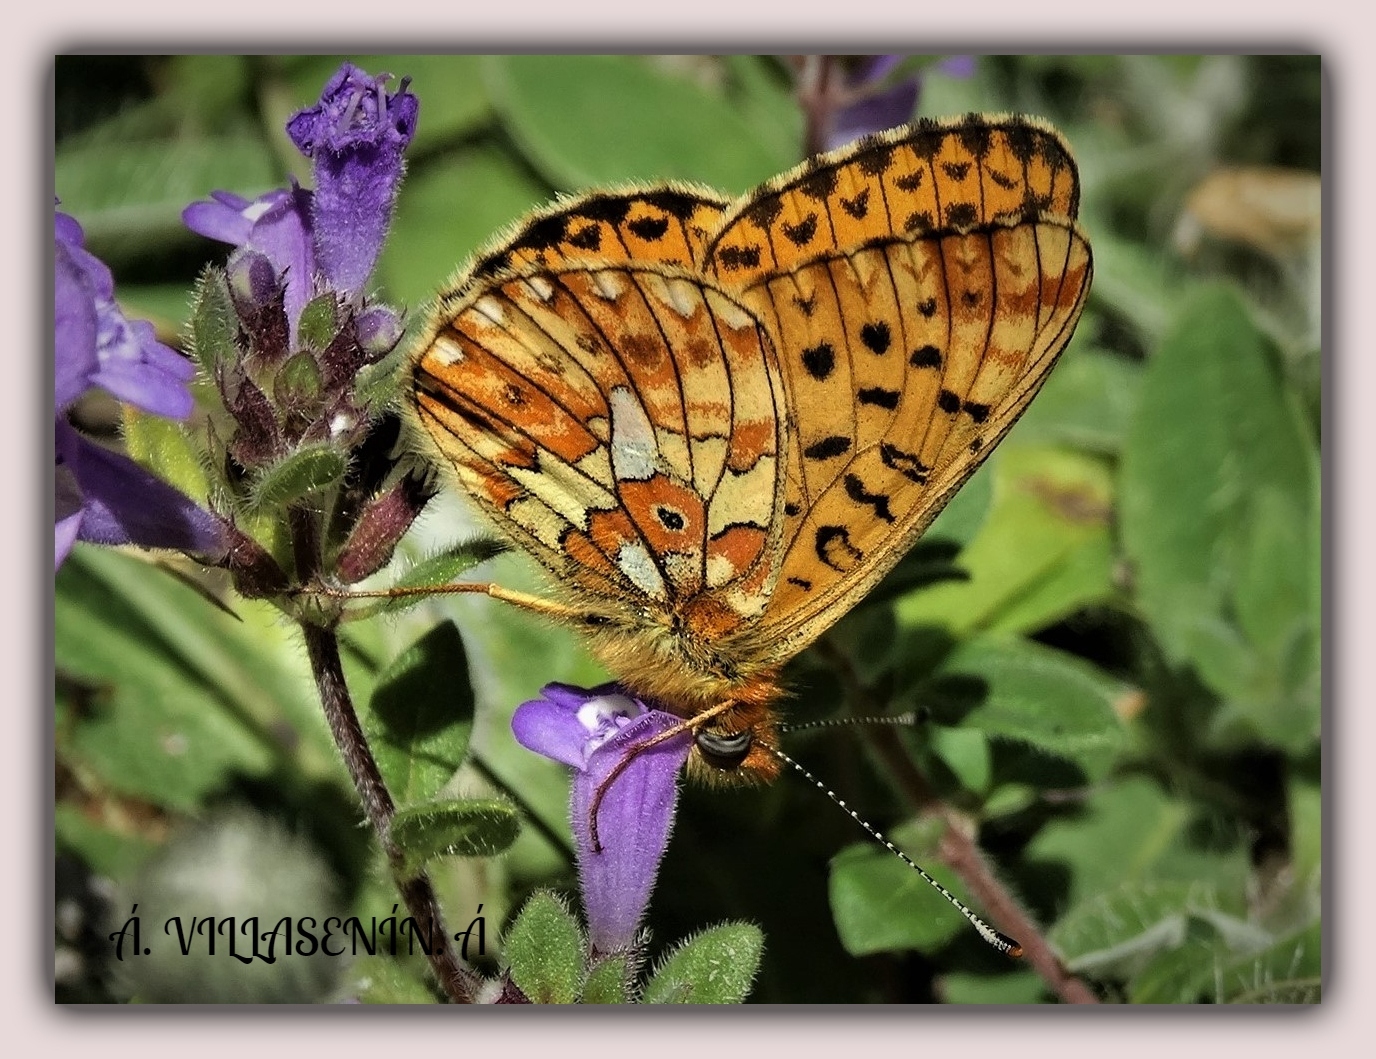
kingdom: Animalia
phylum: Arthropoda
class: Insecta
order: Lepidoptera
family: Nymphalidae
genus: Clossiana
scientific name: Clossiana euphrosyne
